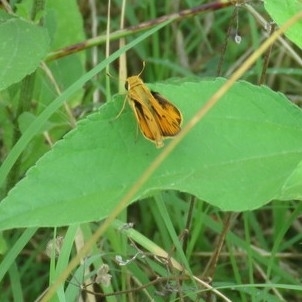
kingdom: Animalia
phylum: Arthropoda
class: Insecta
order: Lepidoptera
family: Hesperiidae
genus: Hylephila
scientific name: Hylephila phyleus
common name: Fiery skipper
